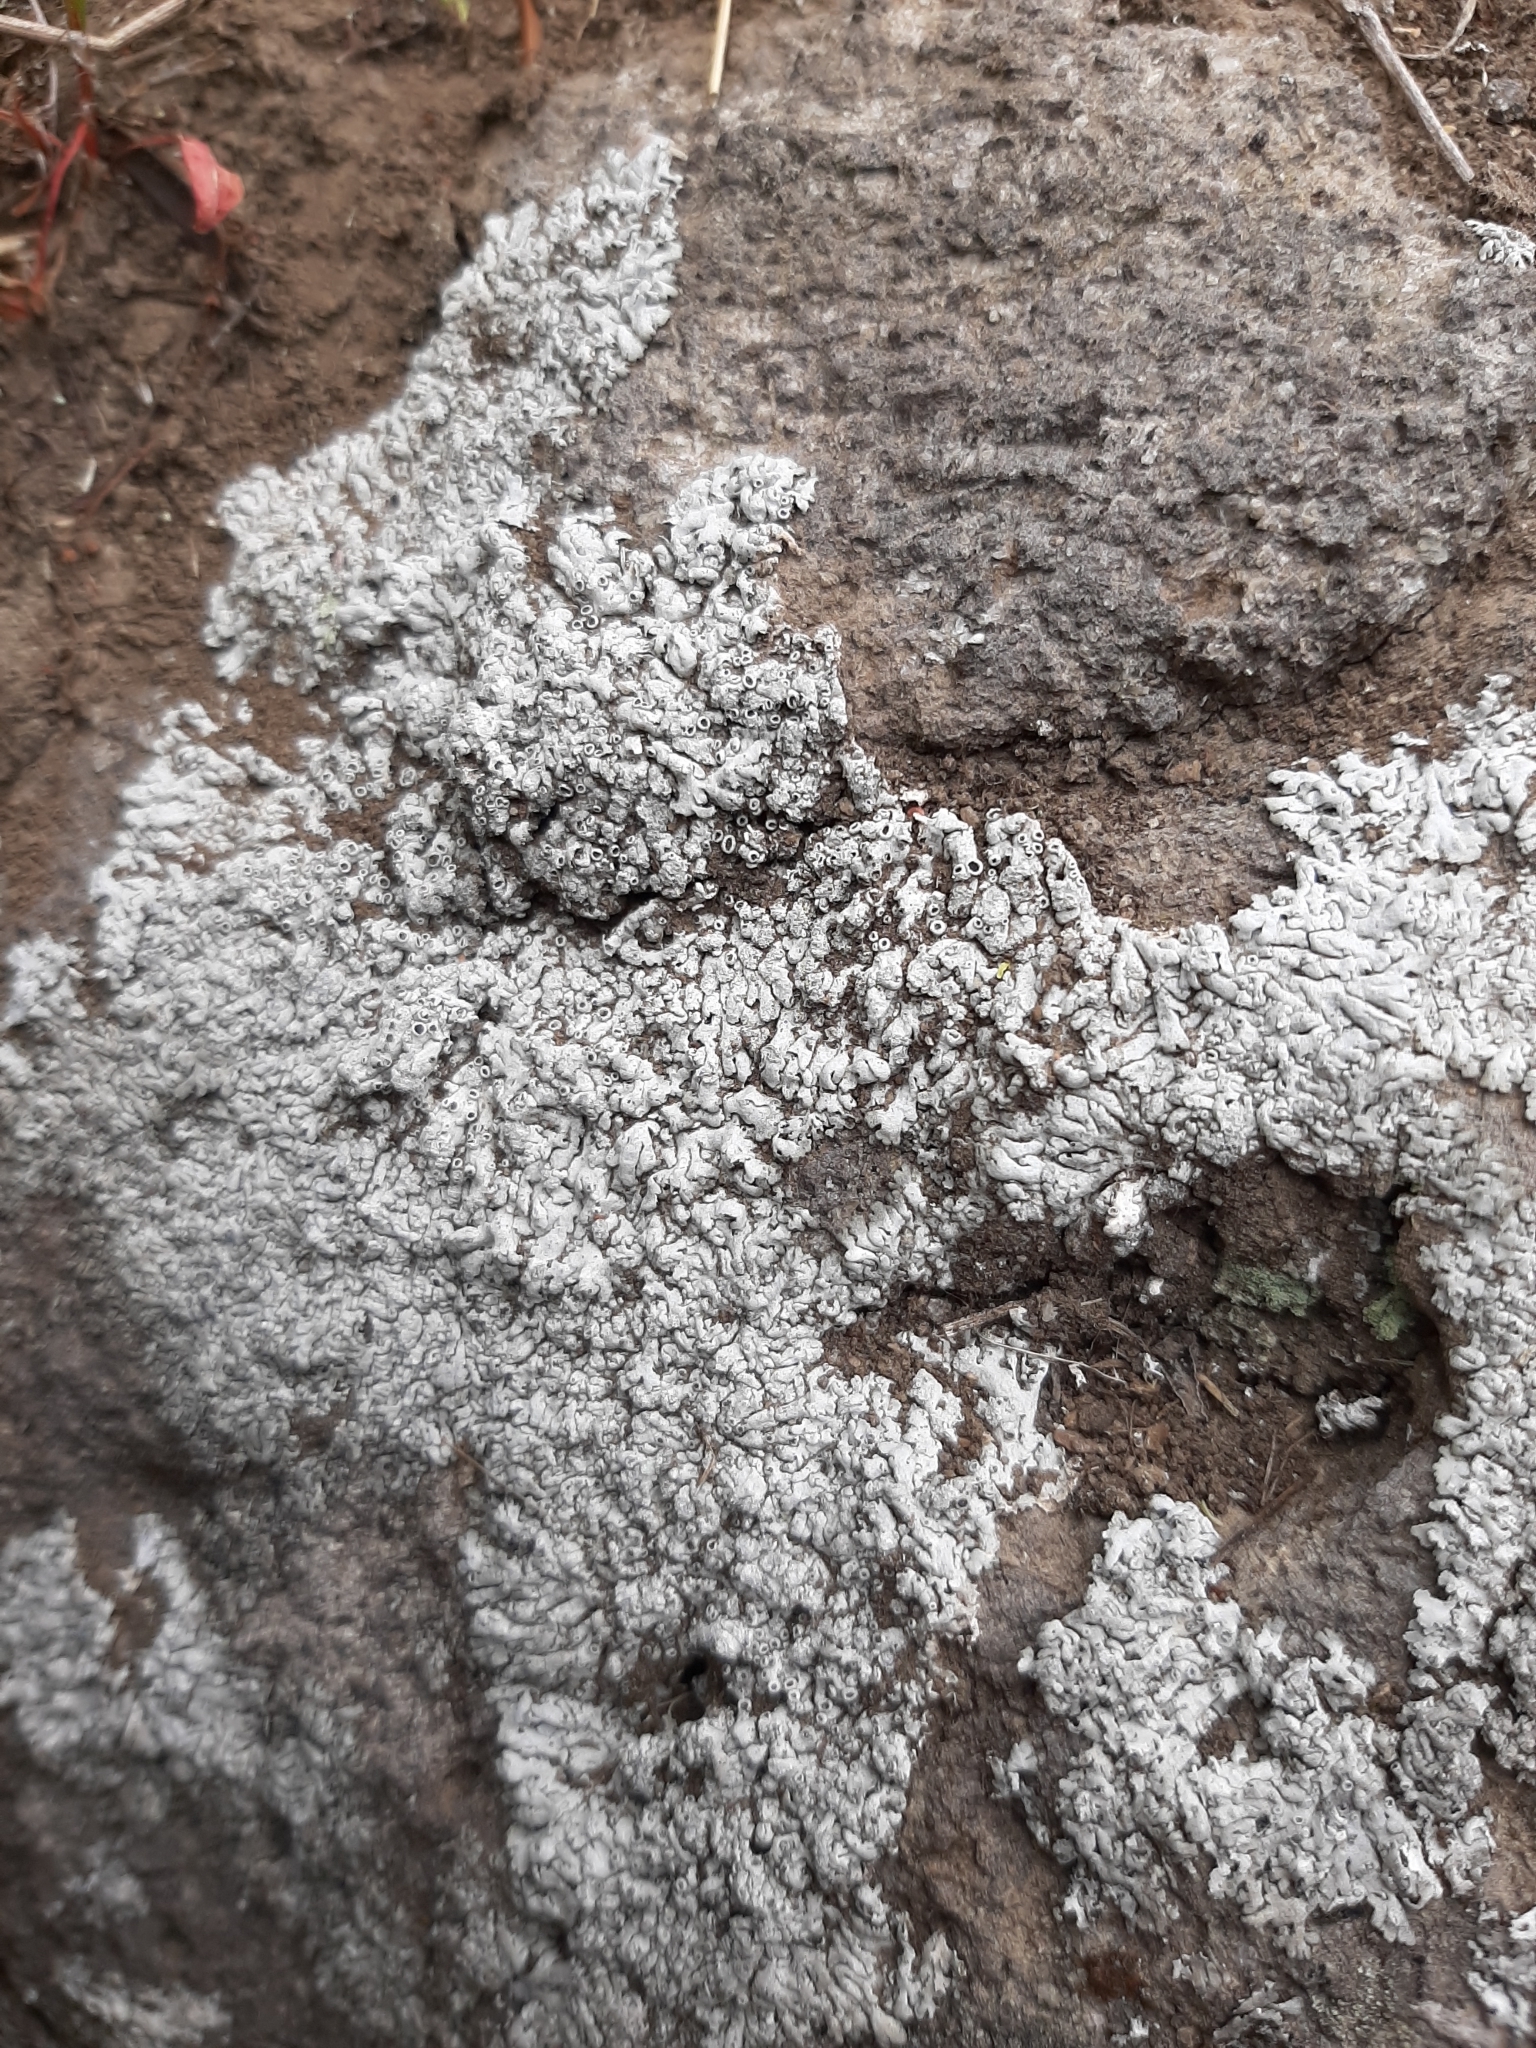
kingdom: Fungi
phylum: Ascomycota
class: Lecanoromycetes
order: Caliciales
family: Physciaceae
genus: Physcia
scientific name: Physcia caesia
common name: Blue-gray rosette lichen
